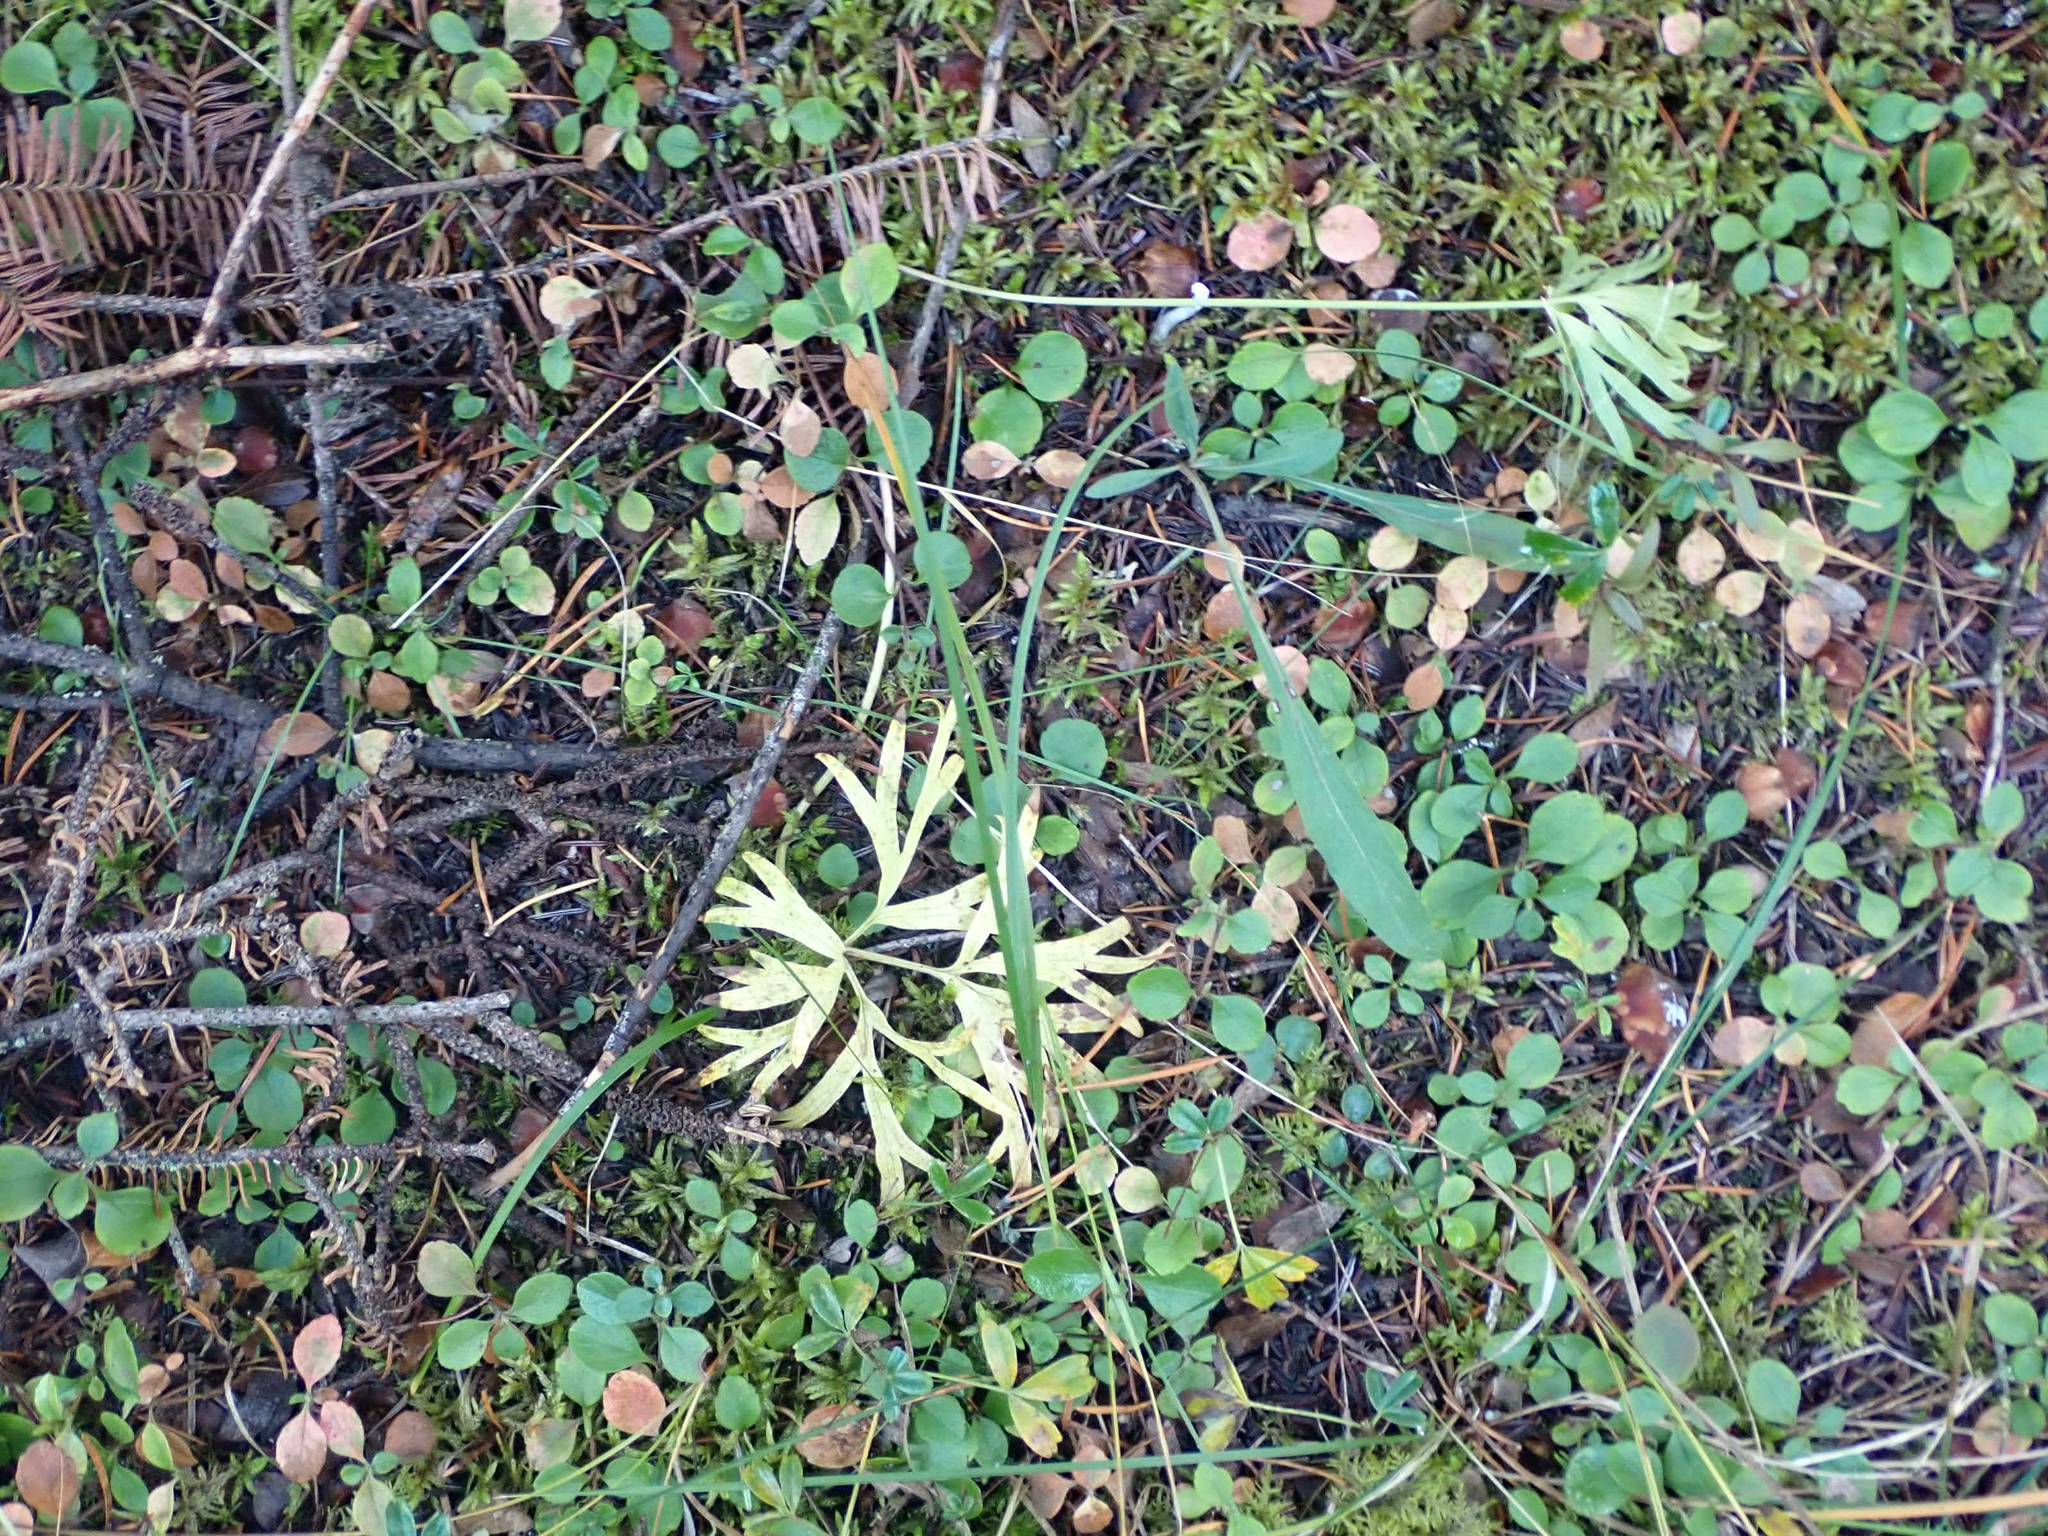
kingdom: Plantae
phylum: Tracheophyta
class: Magnoliopsida
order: Ranunculales
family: Ranunculaceae
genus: Pulsatilla
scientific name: Pulsatilla nuttalliana
